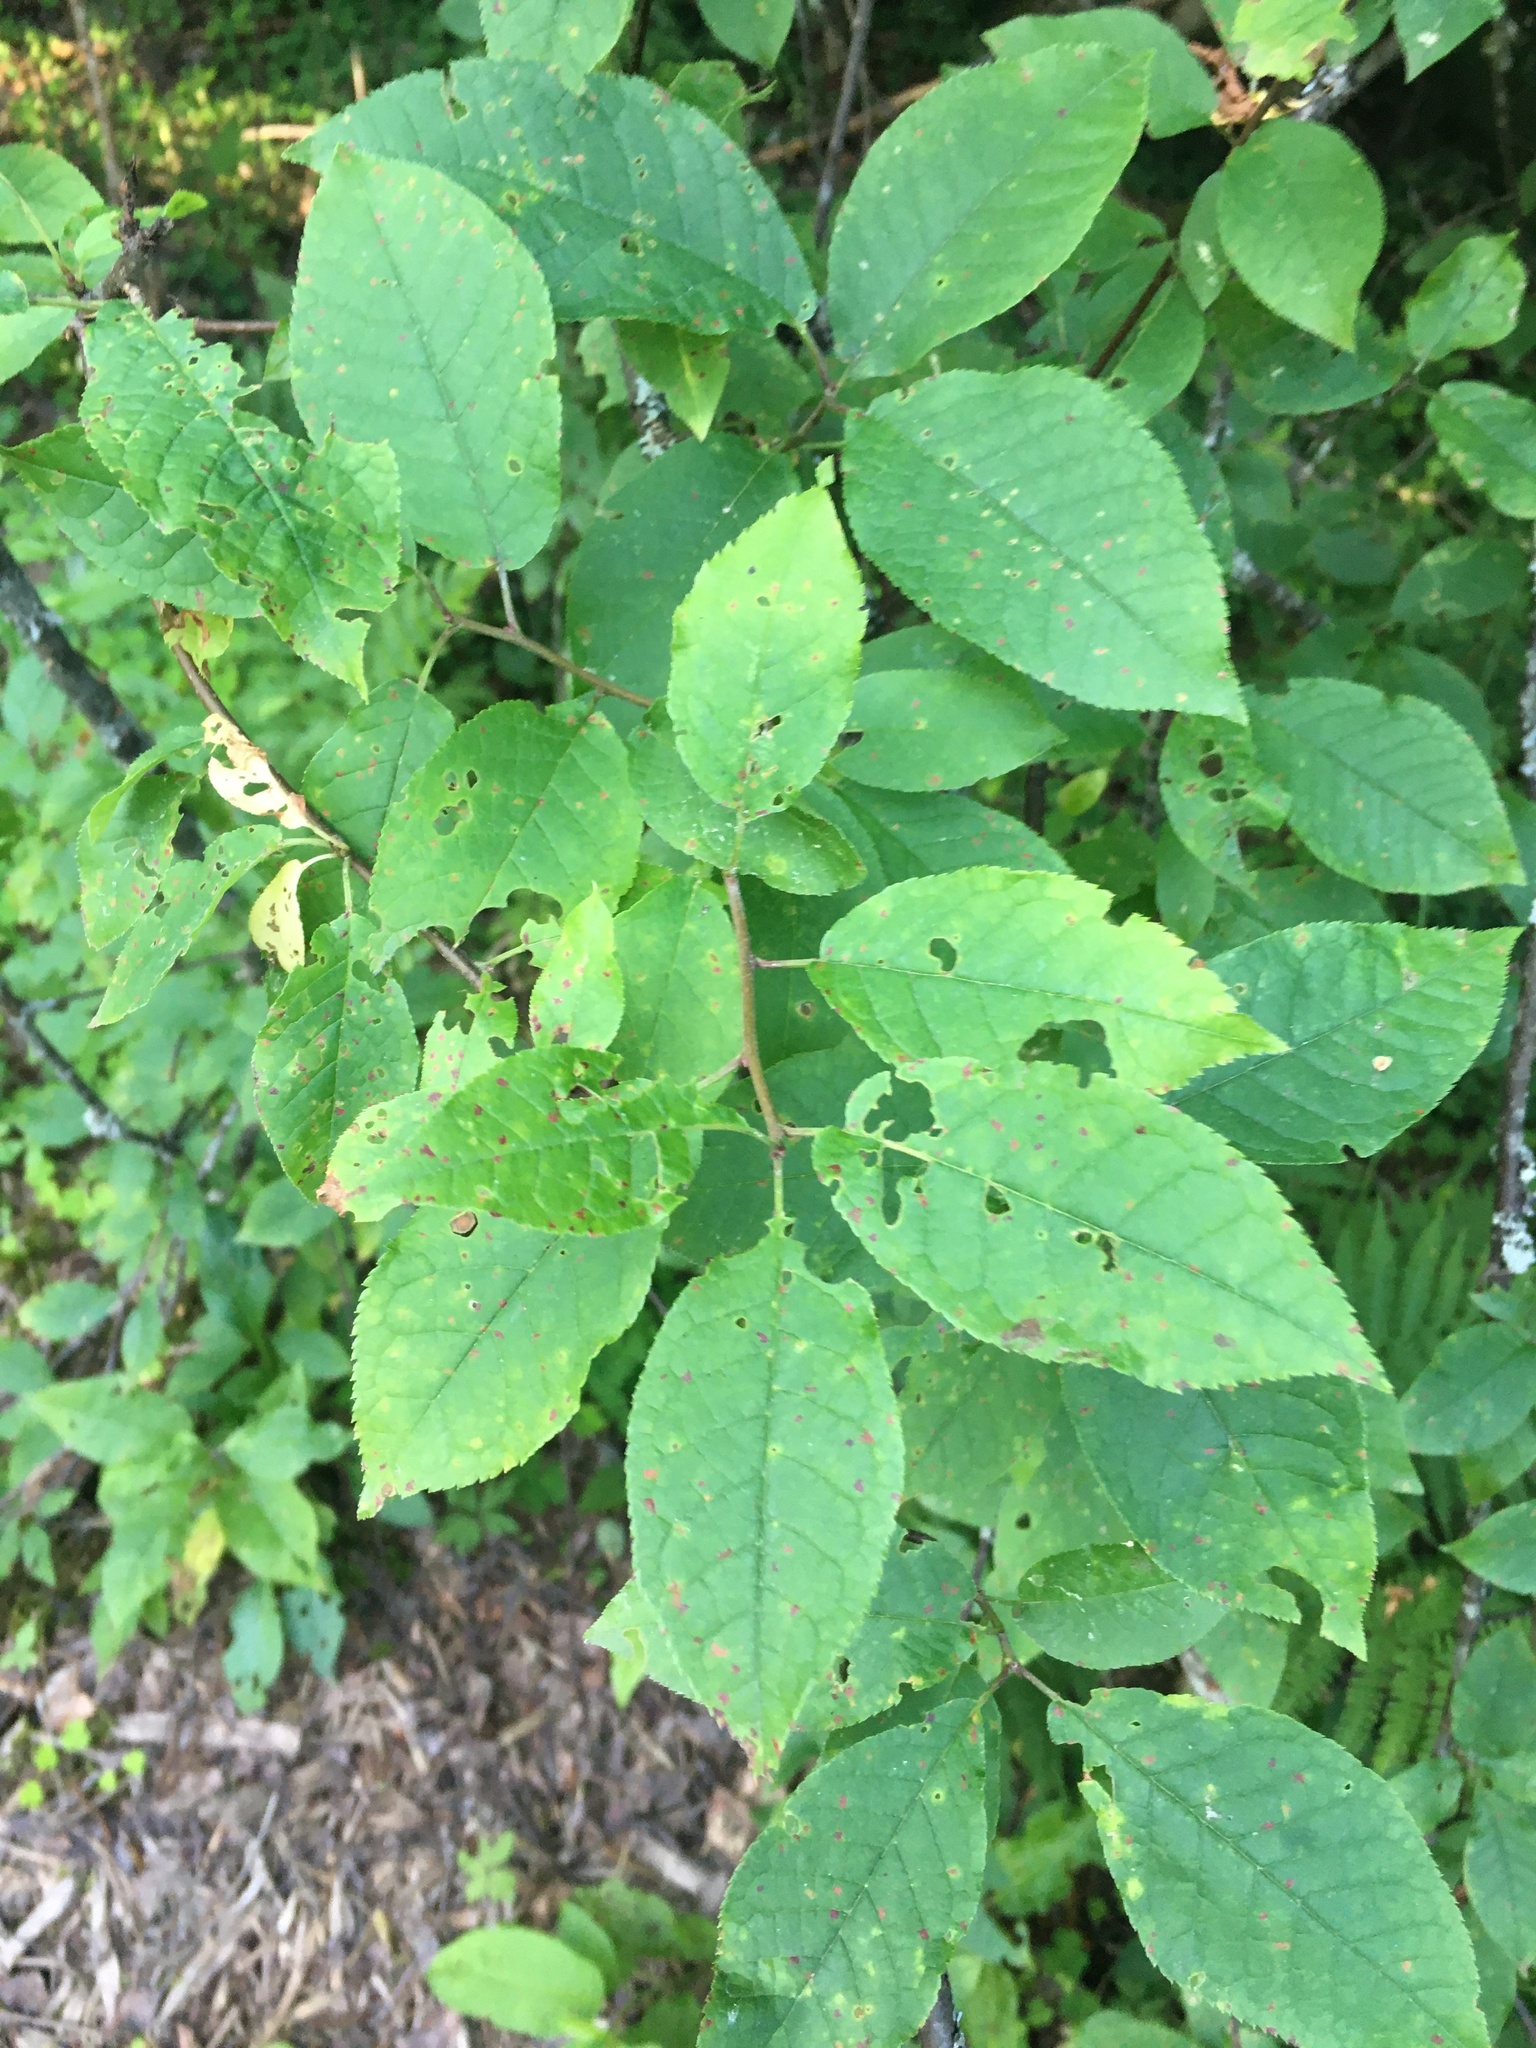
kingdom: Plantae
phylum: Tracheophyta
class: Magnoliopsida
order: Rosales
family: Rosaceae
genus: Prunus
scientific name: Prunus padus
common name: Bird cherry
